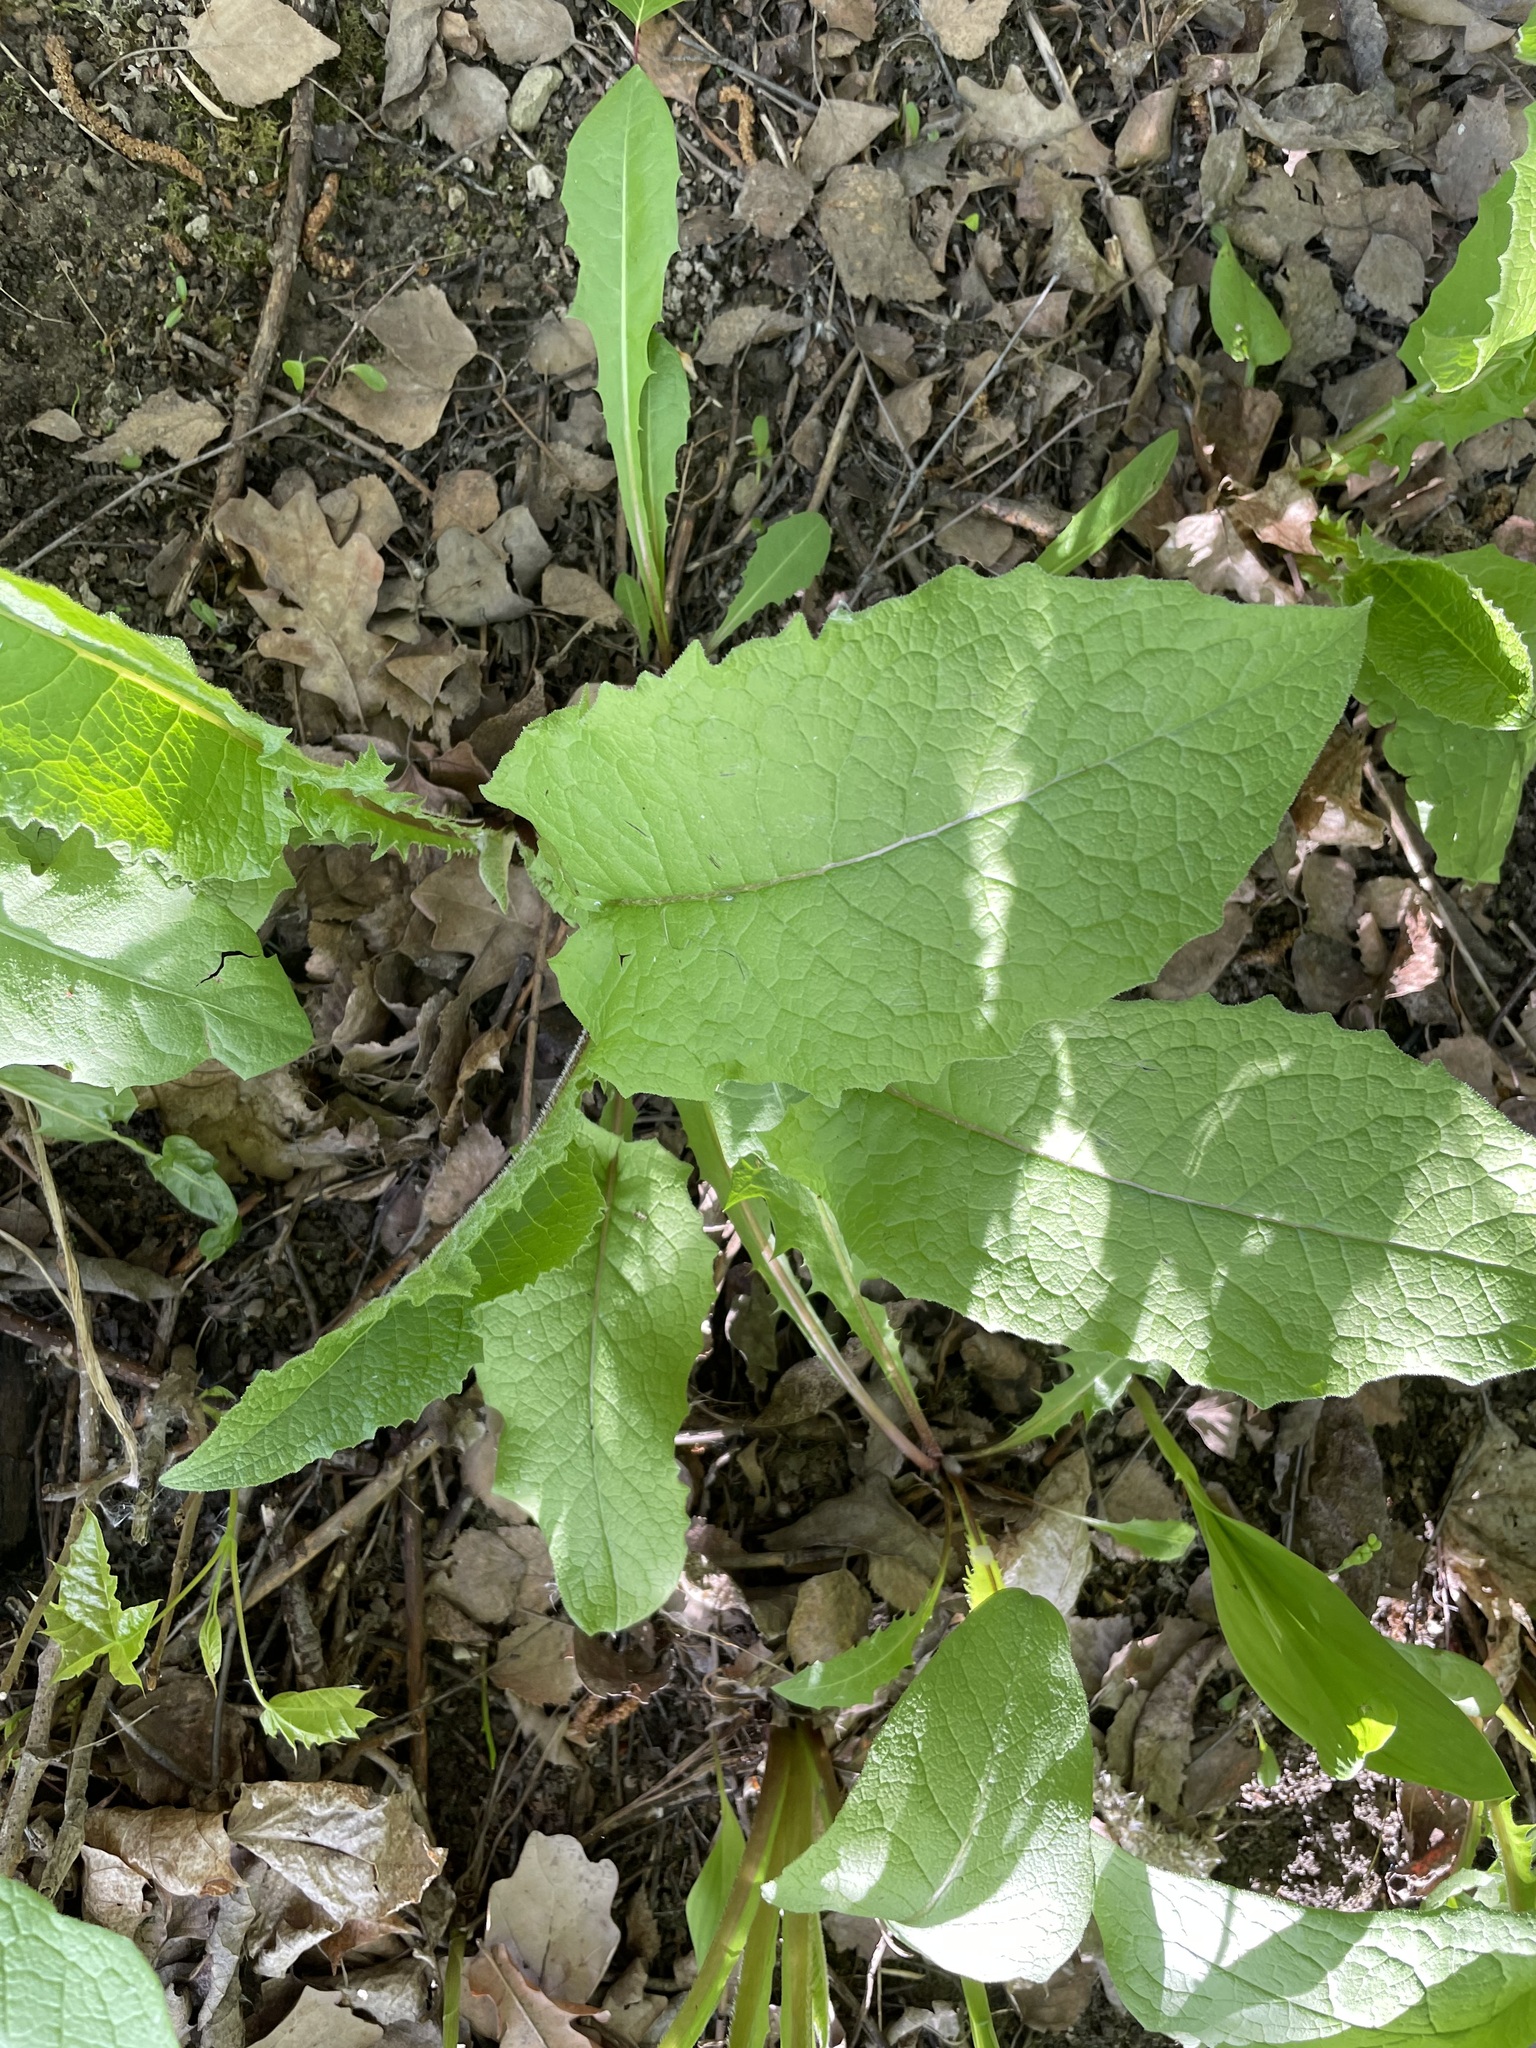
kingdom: Plantae
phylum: Tracheophyta
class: Magnoliopsida
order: Asterales
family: Asteraceae
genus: Crepis
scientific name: Crepis sibirica
